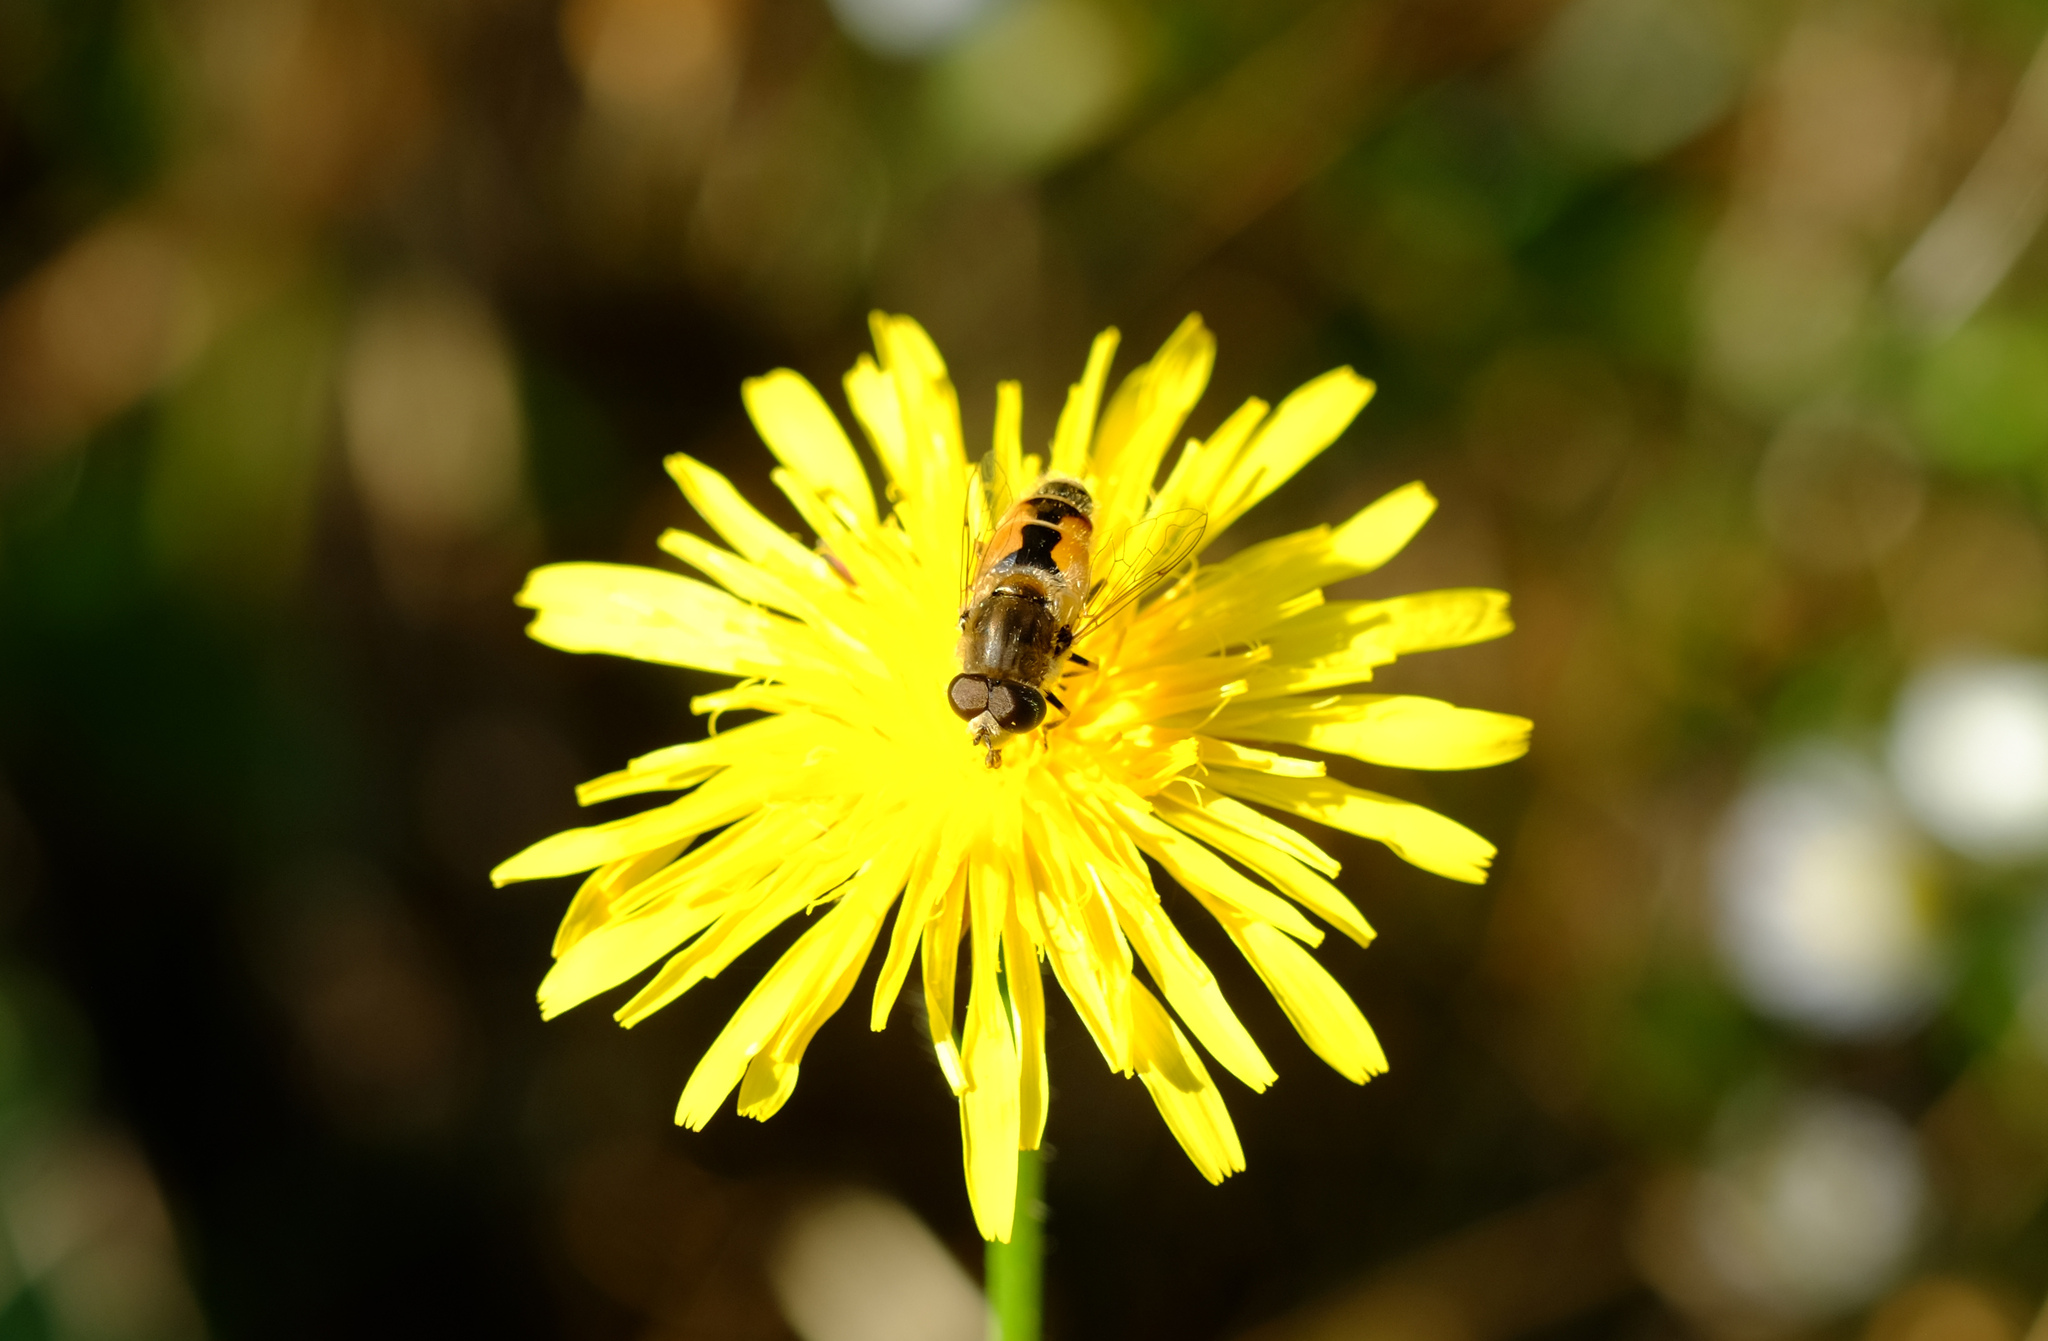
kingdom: Animalia
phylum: Arthropoda
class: Insecta
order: Diptera
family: Syrphidae
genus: Eristalis
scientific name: Eristalis arbustorum
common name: Hover fly
